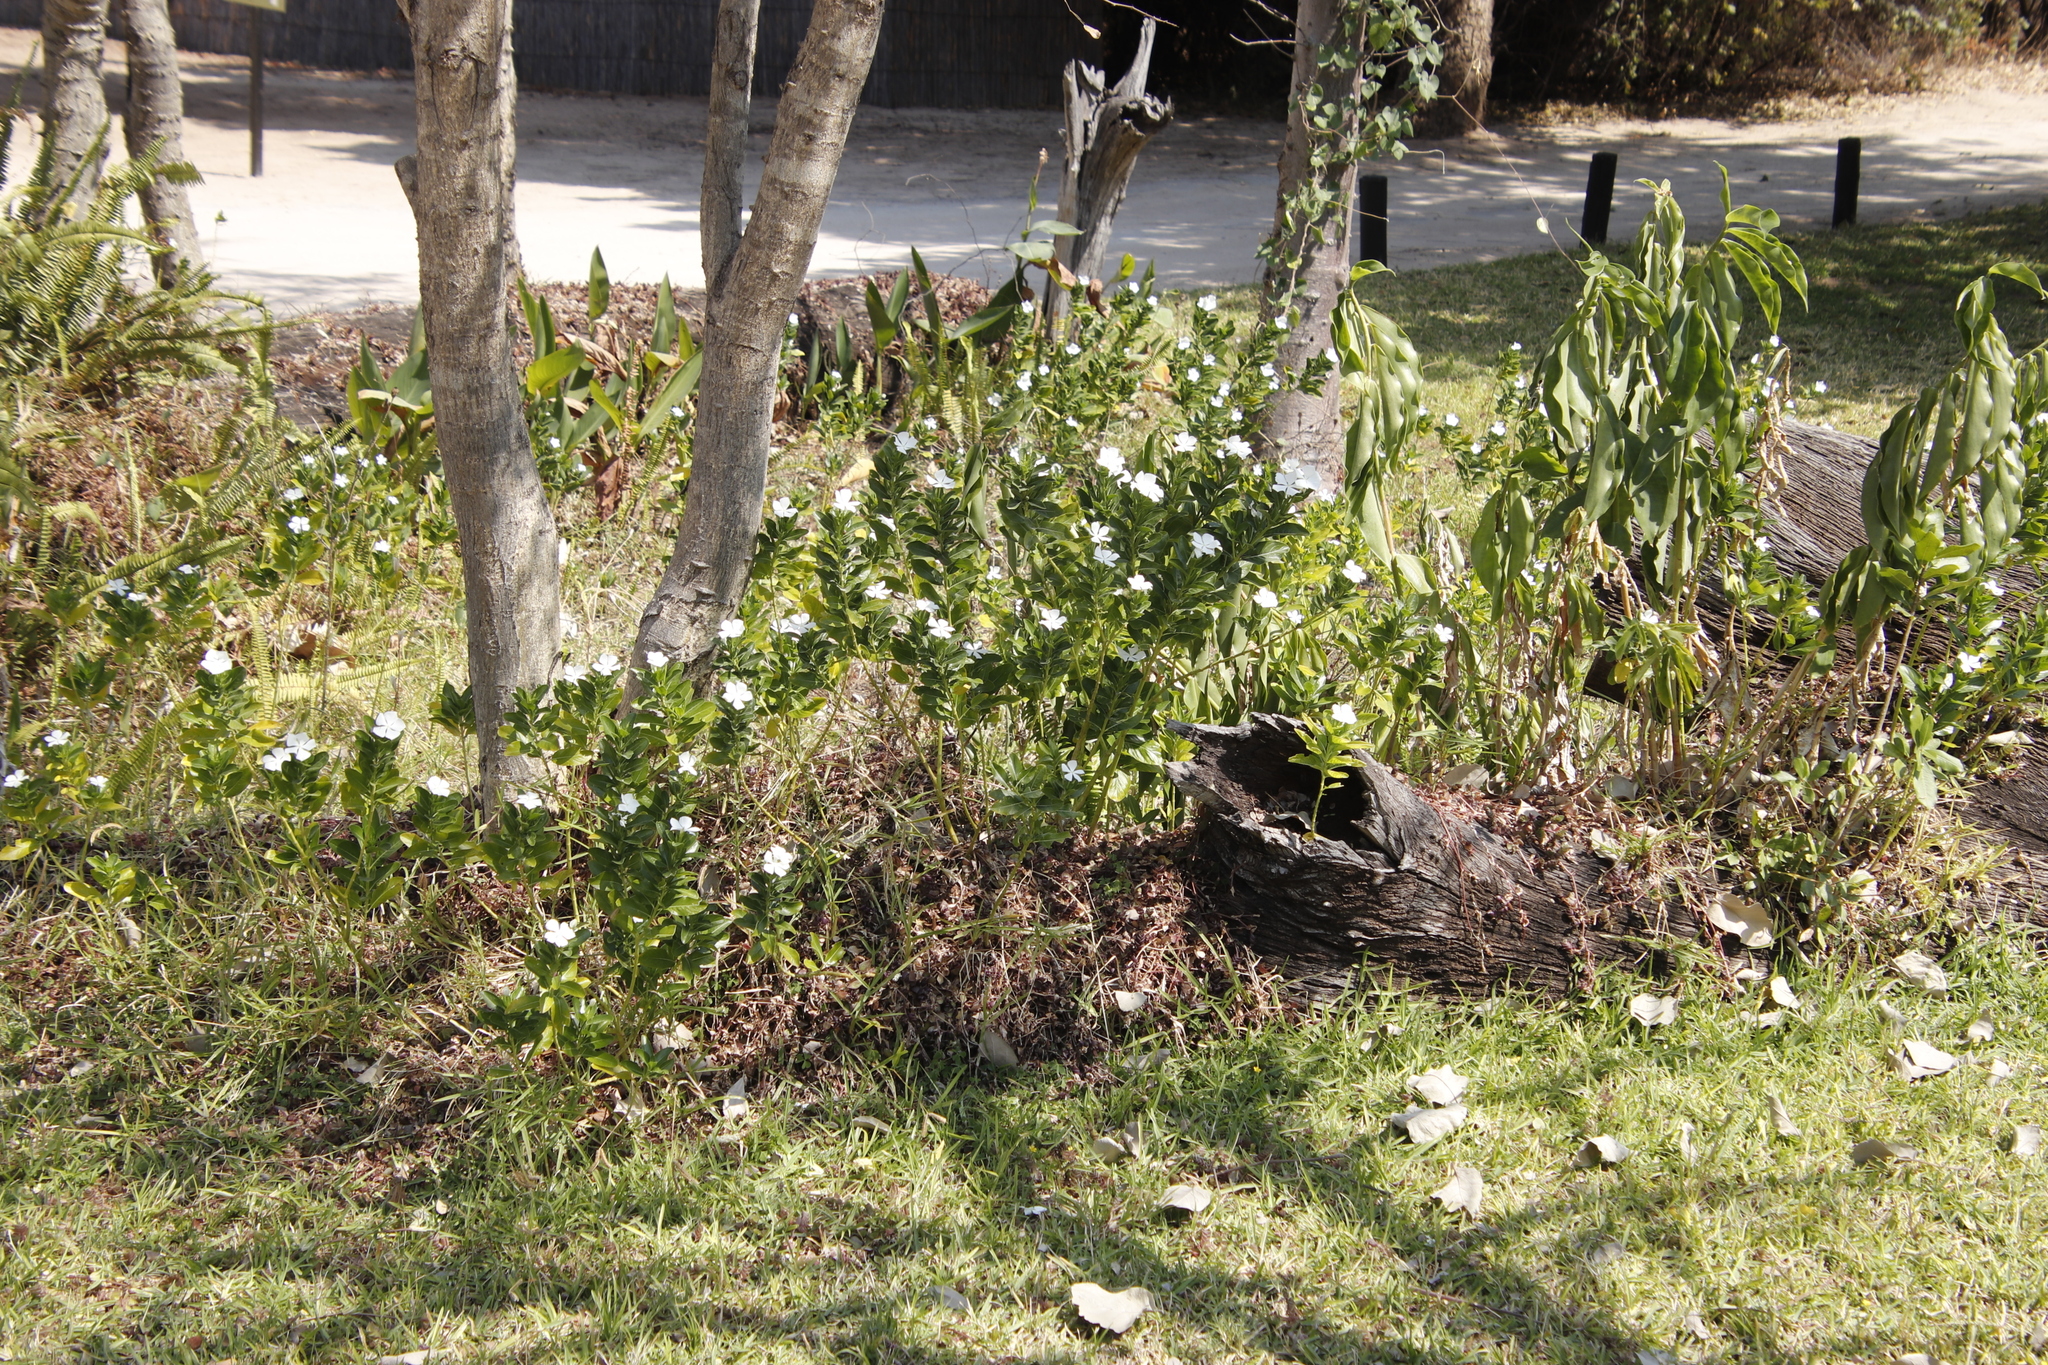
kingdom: Plantae
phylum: Tracheophyta
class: Magnoliopsida
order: Gentianales
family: Apocynaceae
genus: Catharanthus
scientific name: Catharanthus roseus
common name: Madagascar periwinkle
